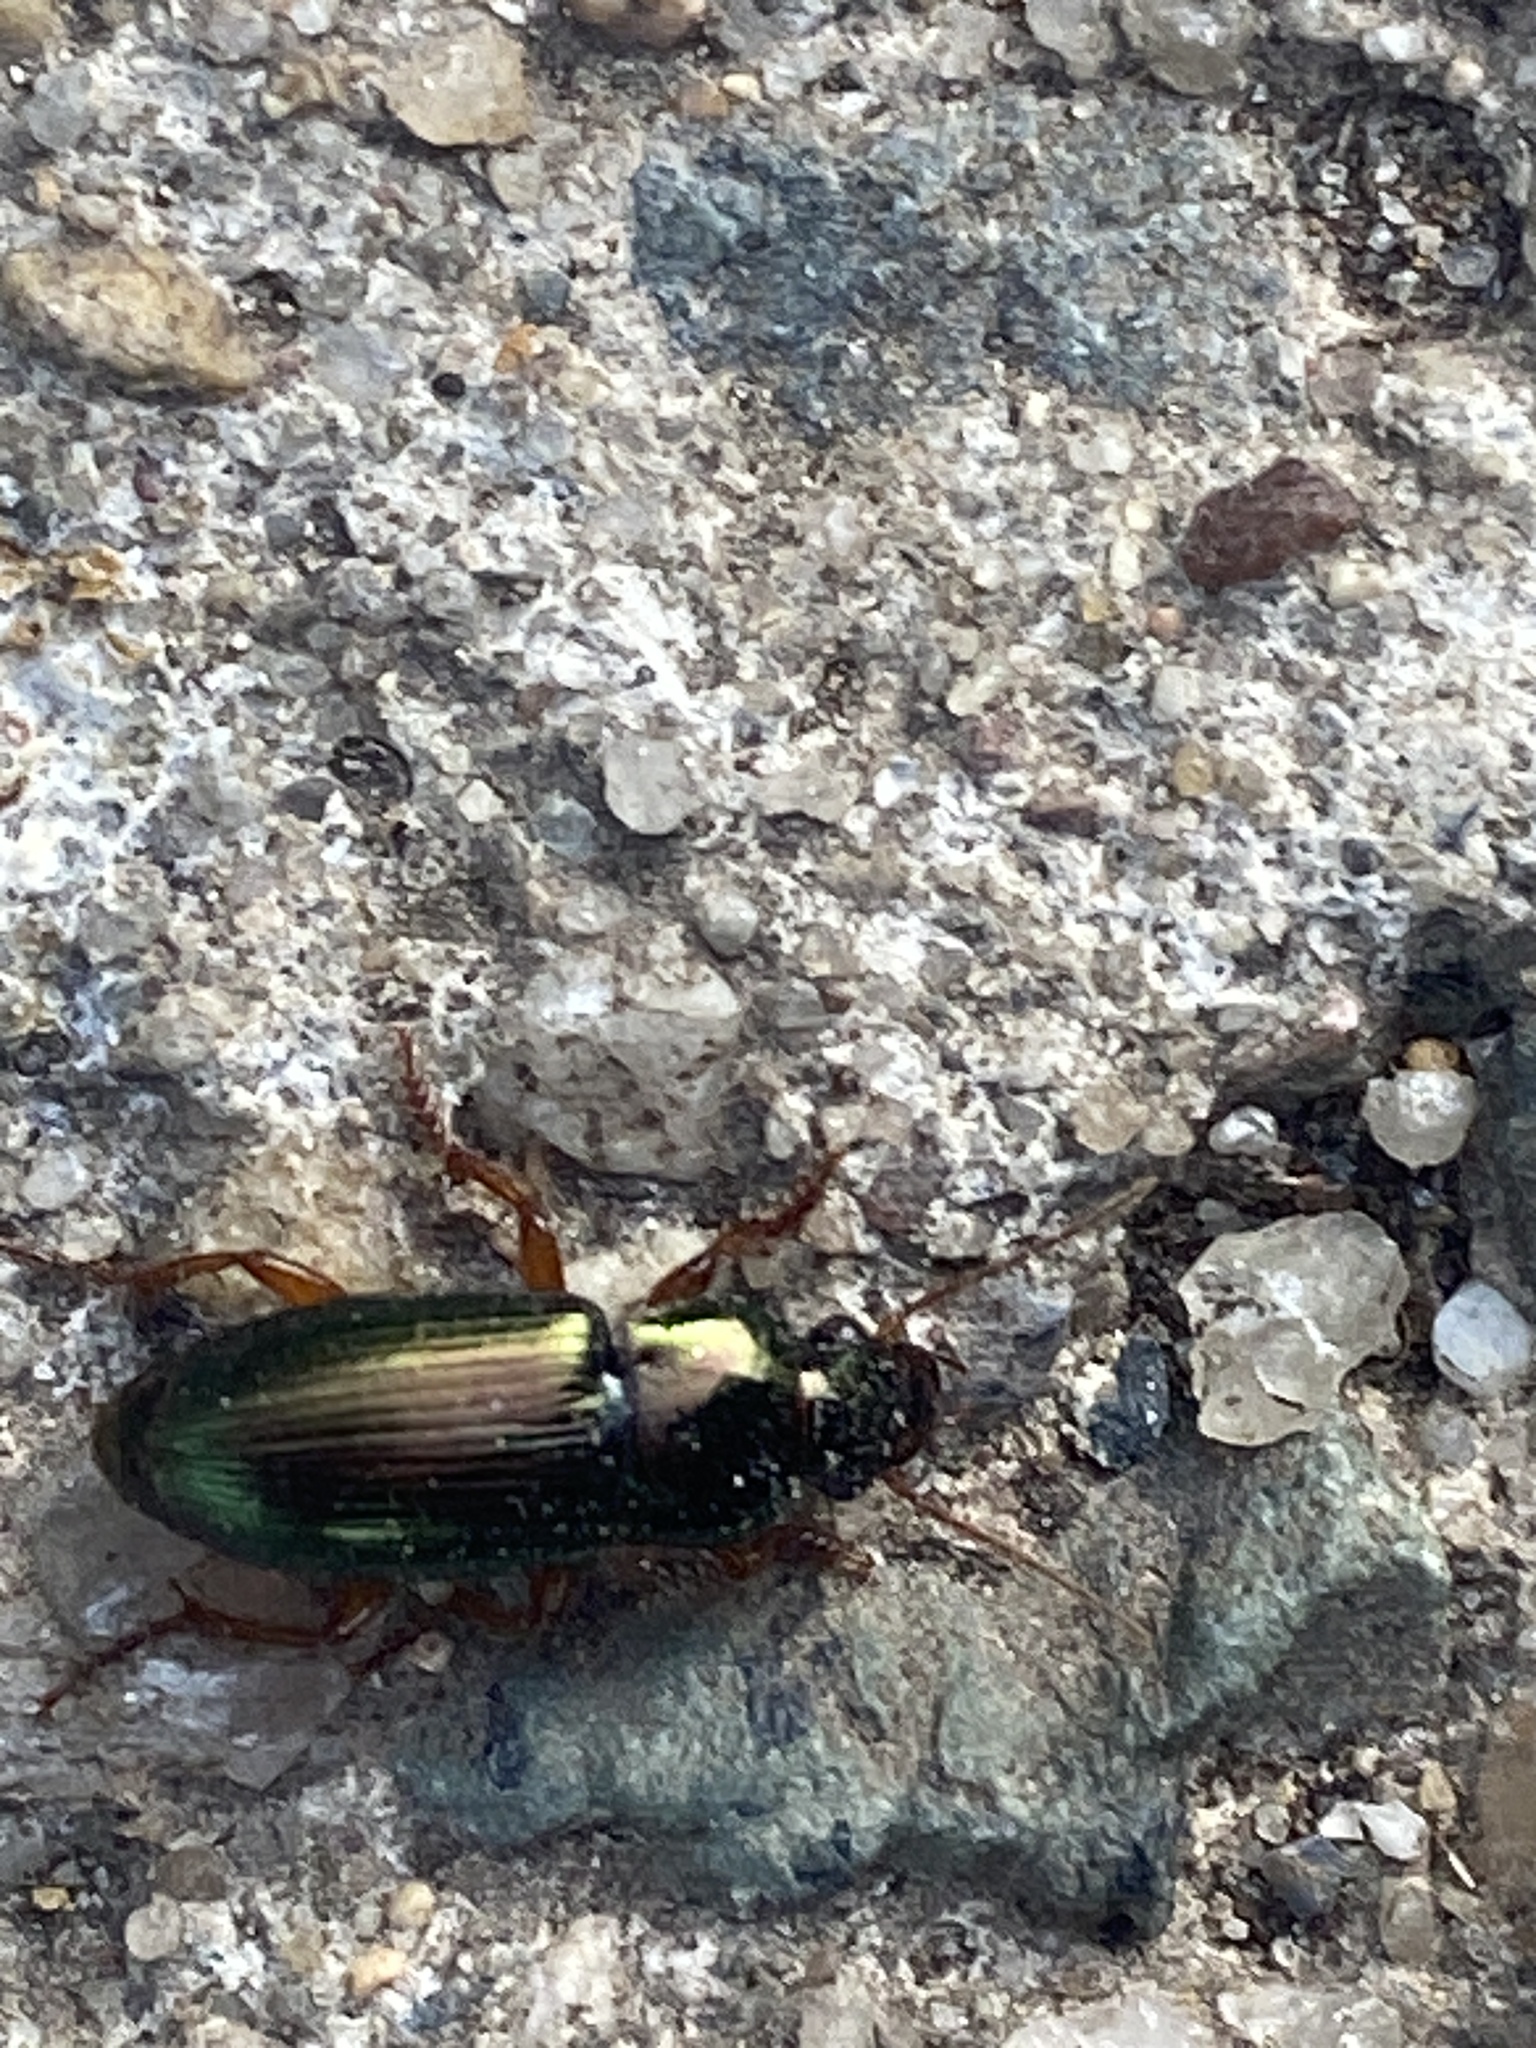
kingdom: Animalia
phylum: Arthropoda
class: Insecta
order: Coleoptera
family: Carabidae
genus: Harpalus
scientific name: Harpalus affinis
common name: Polychrome harp ground beetle
